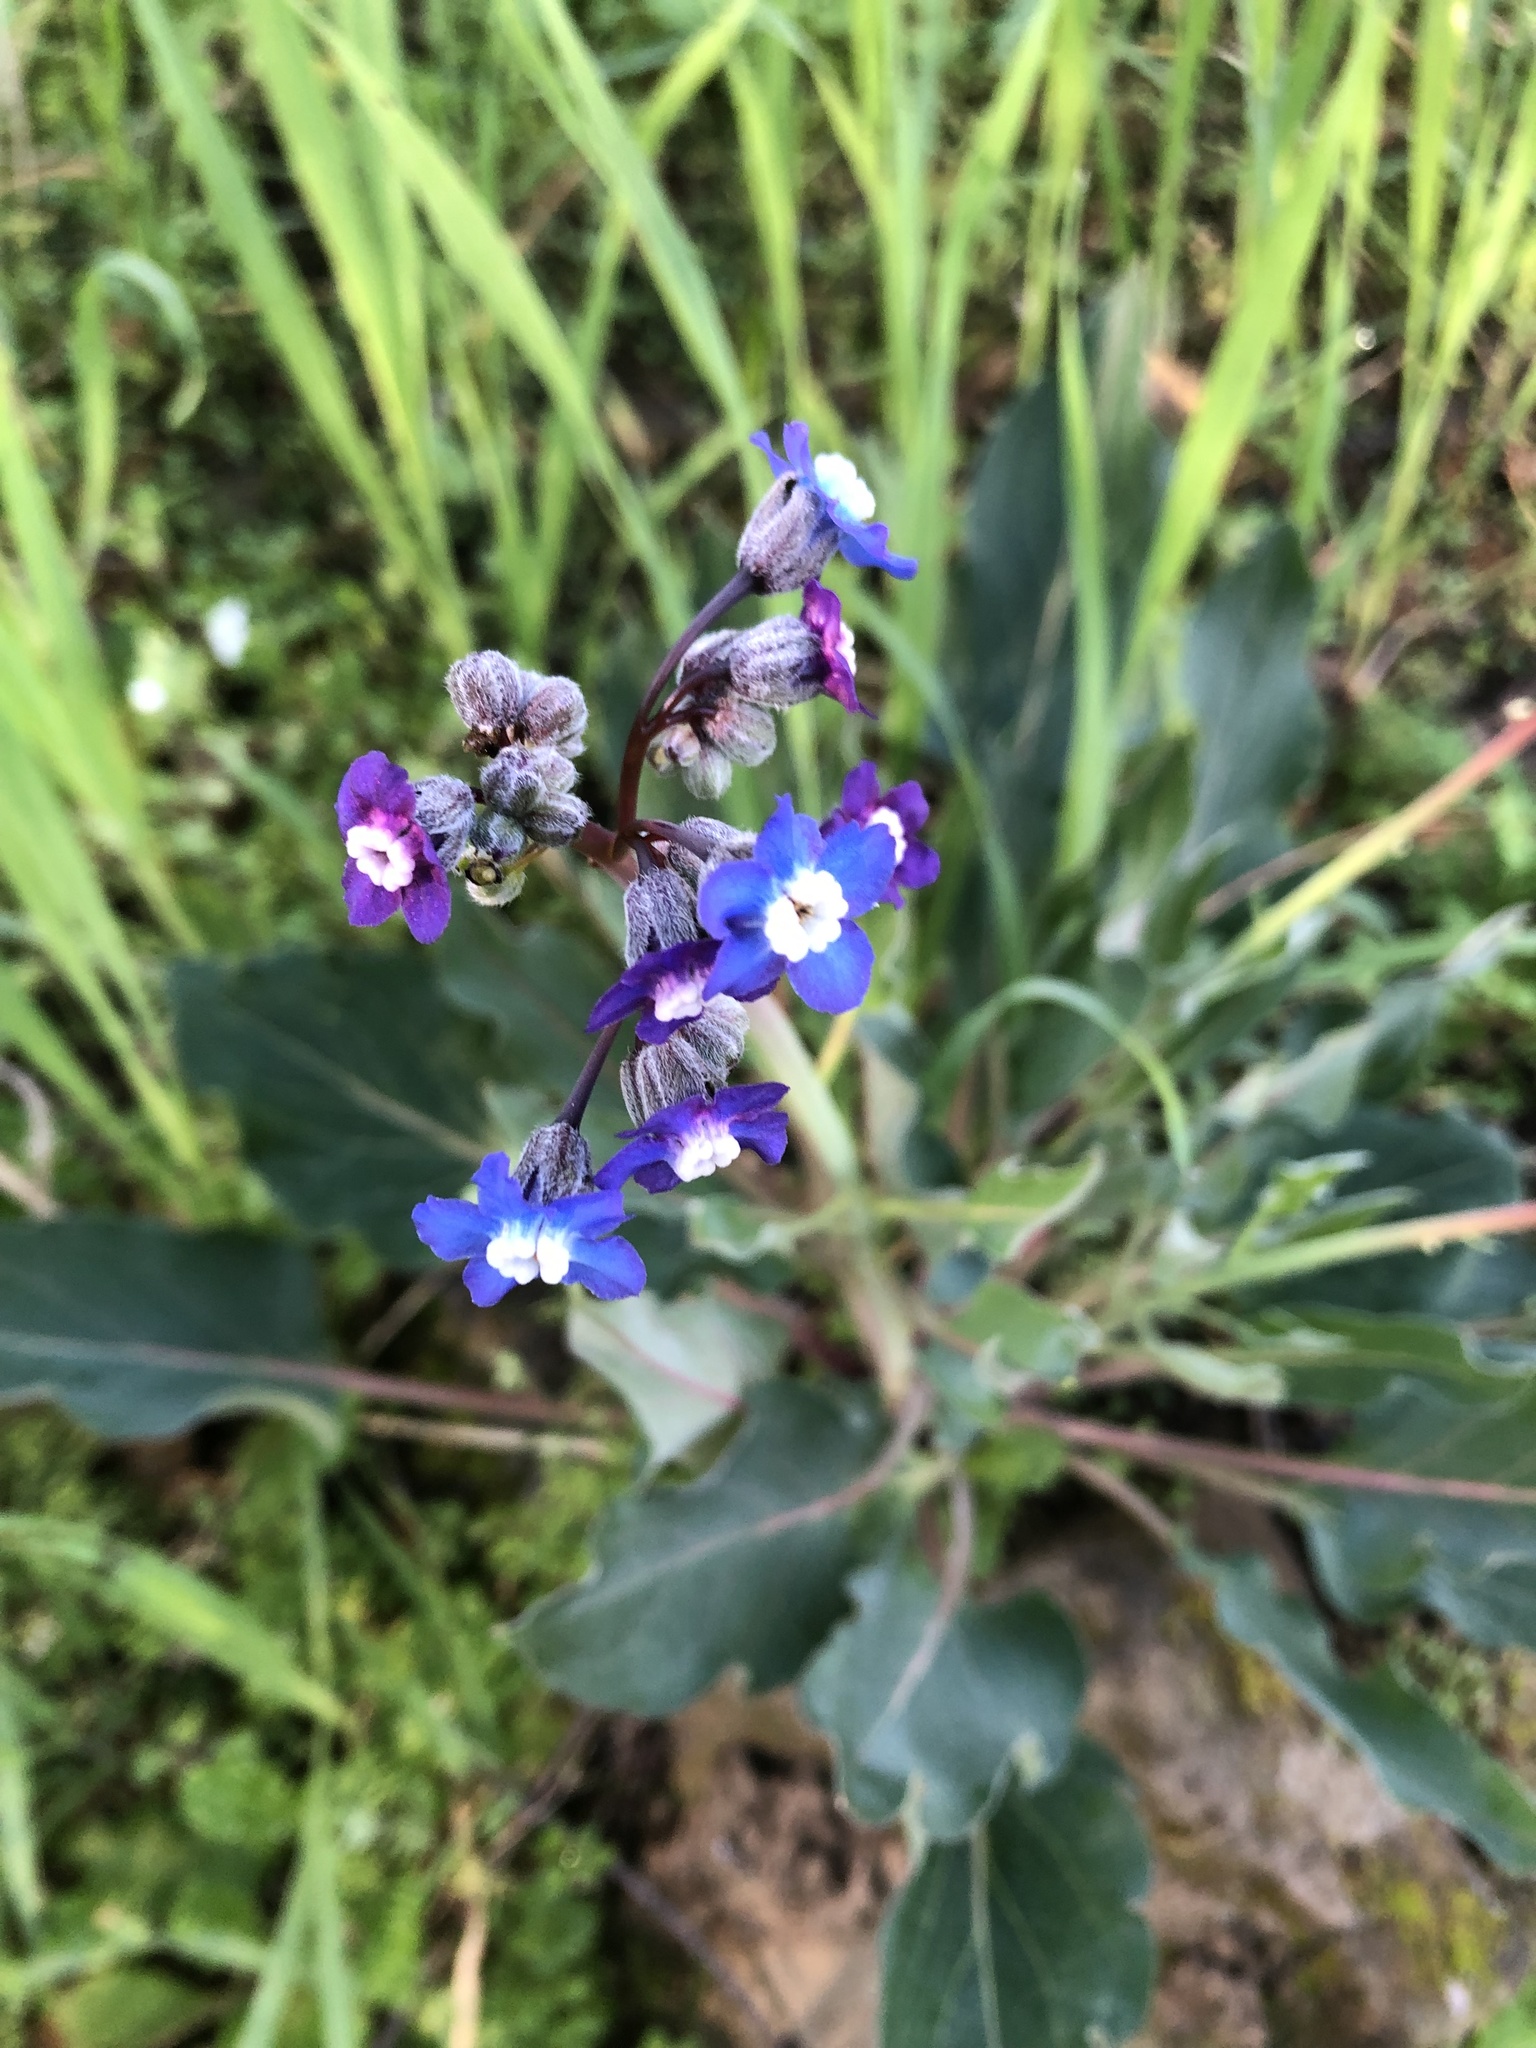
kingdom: Plantae
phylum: Tracheophyta
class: Magnoliopsida
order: Boraginales
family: Boraginaceae
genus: Adelinia
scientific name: Adelinia grande
